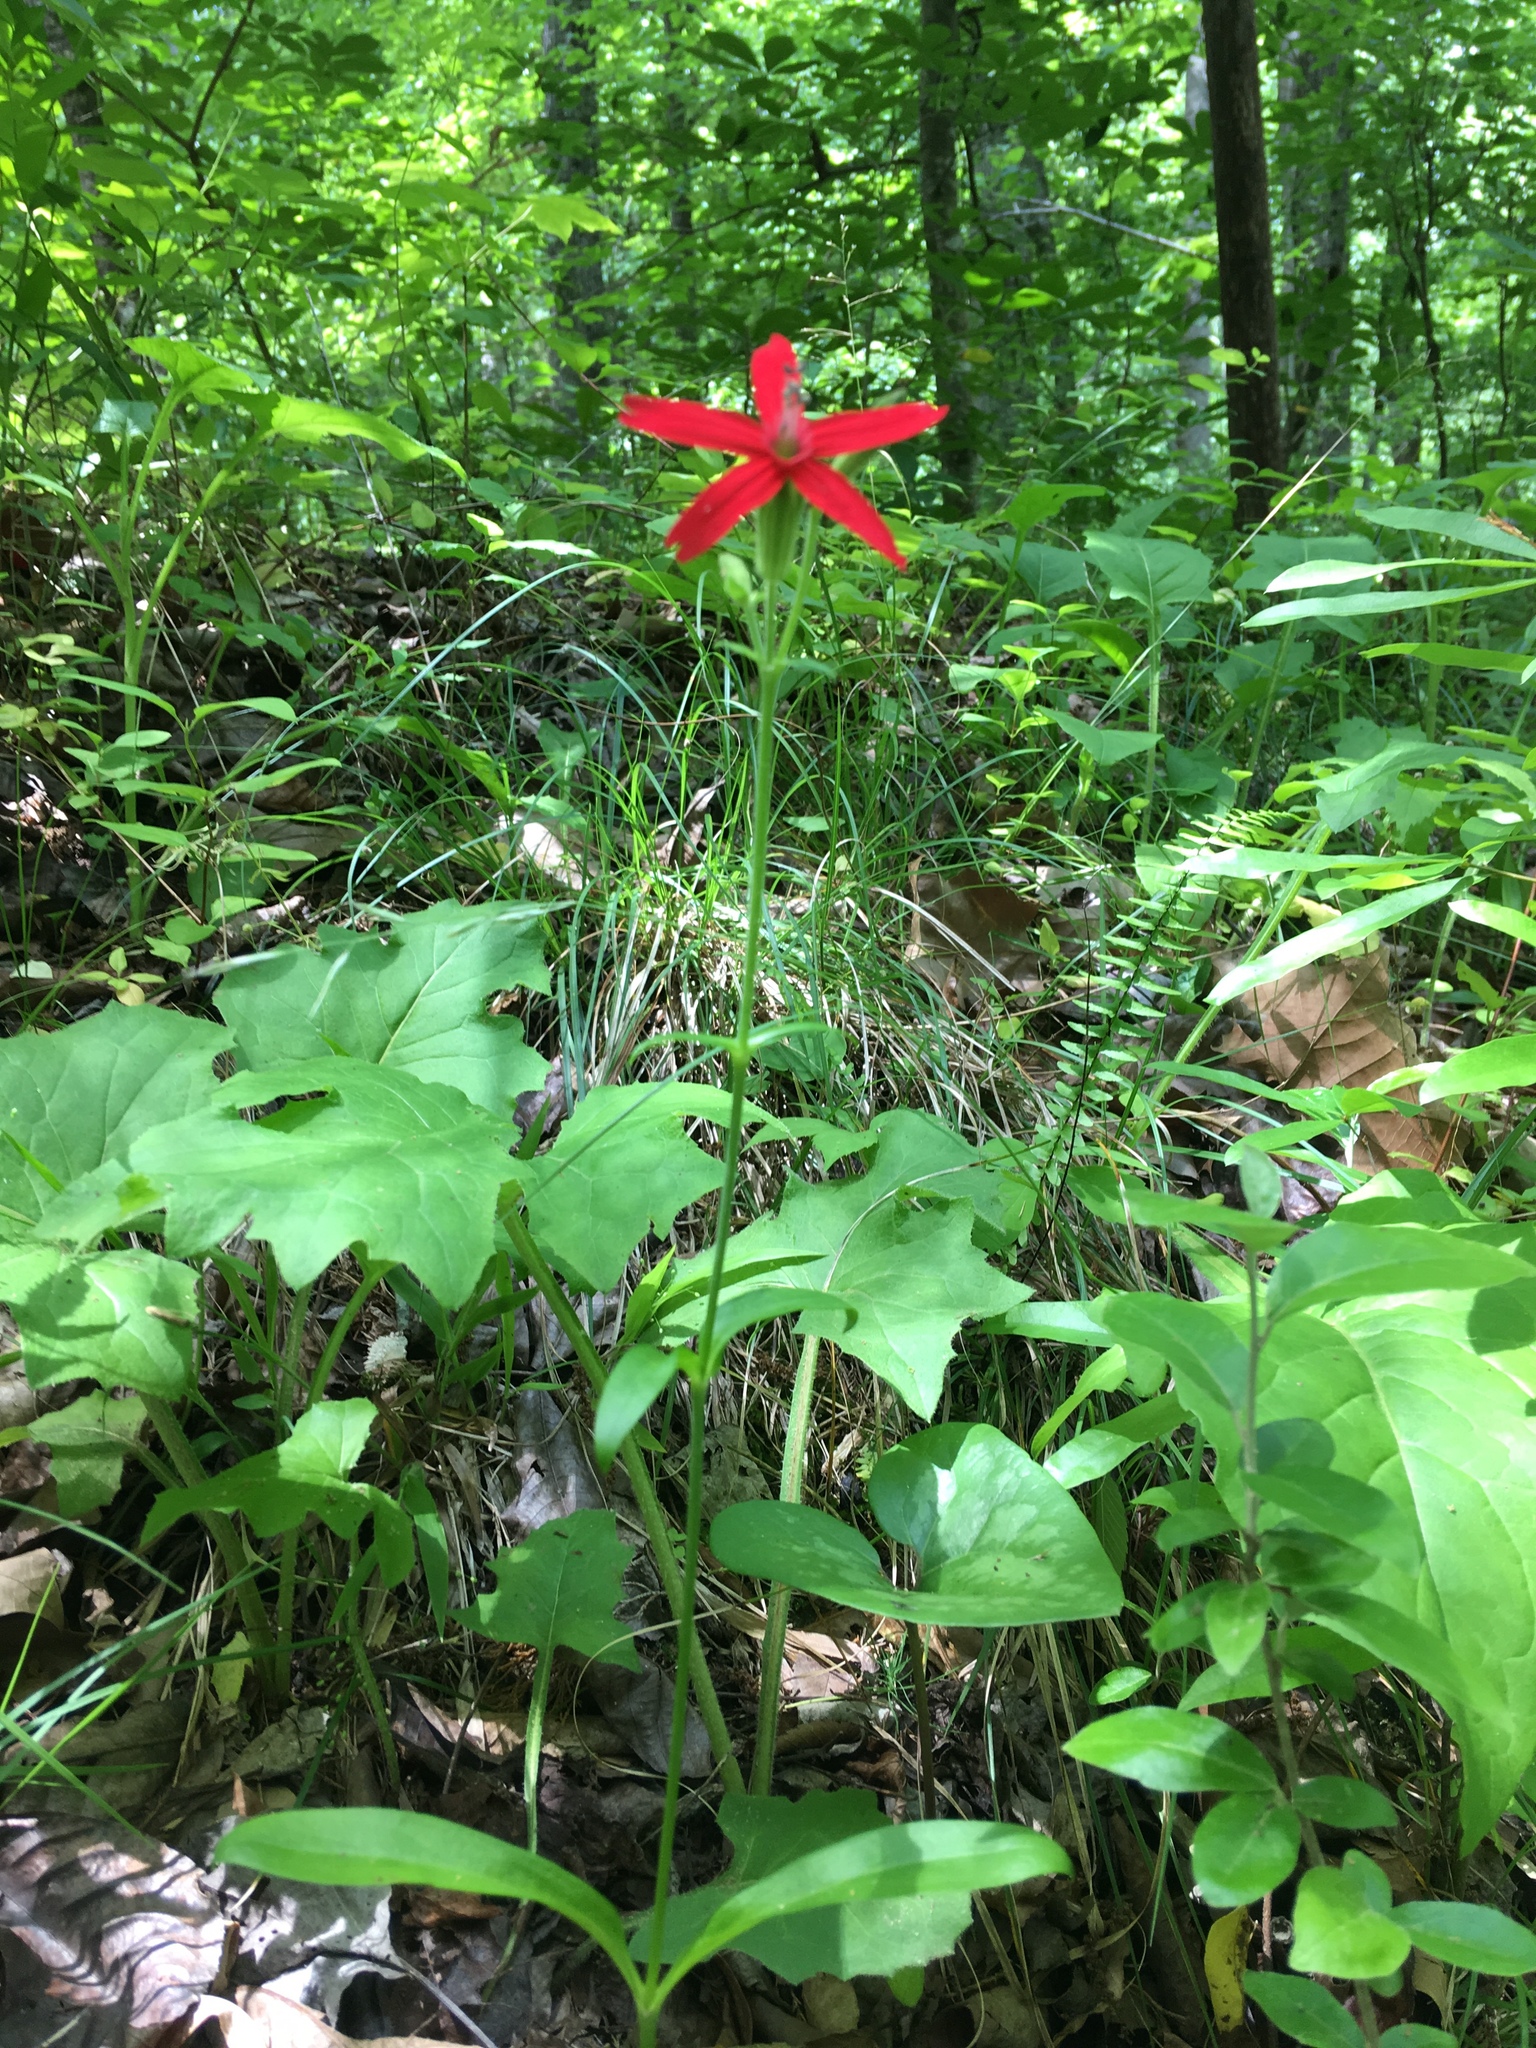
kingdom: Plantae
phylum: Tracheophyta
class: Magnoliopsida
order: Caryophyllales
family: Caryophyllaceae
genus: Silene
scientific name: Silene virginica
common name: Fire-pink
